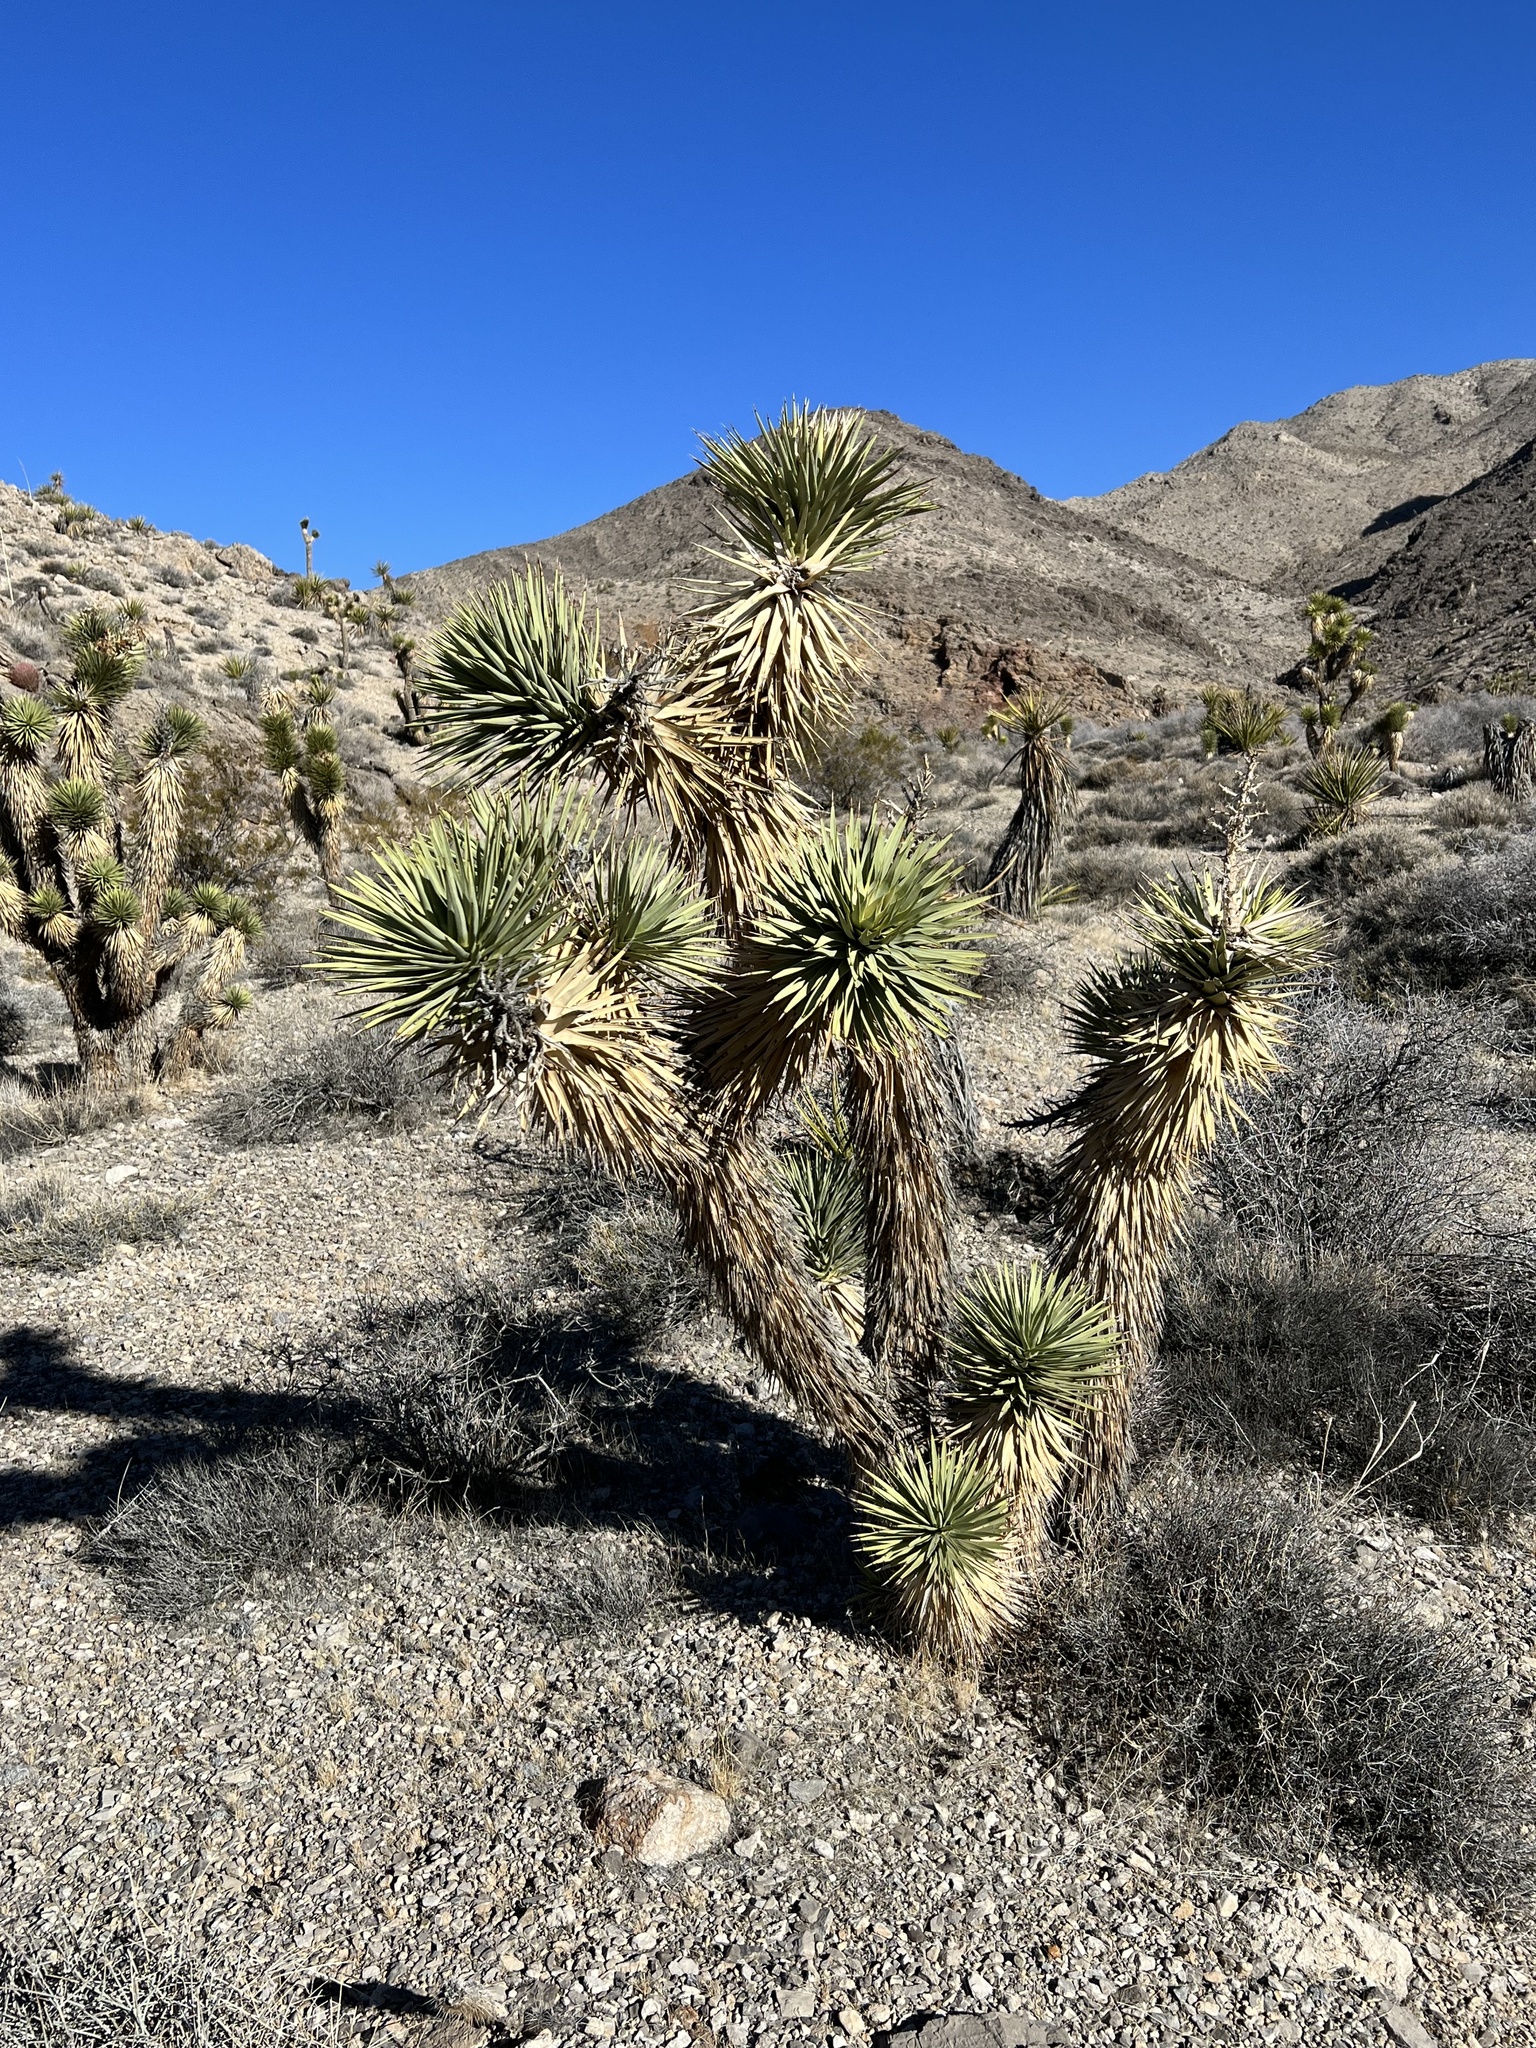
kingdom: Plantae
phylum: Tracheophyta
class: Liliopsida
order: Asparagales
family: Asparagaceae
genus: Yucca
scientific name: Yucca brevifolia
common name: Joshua tree
